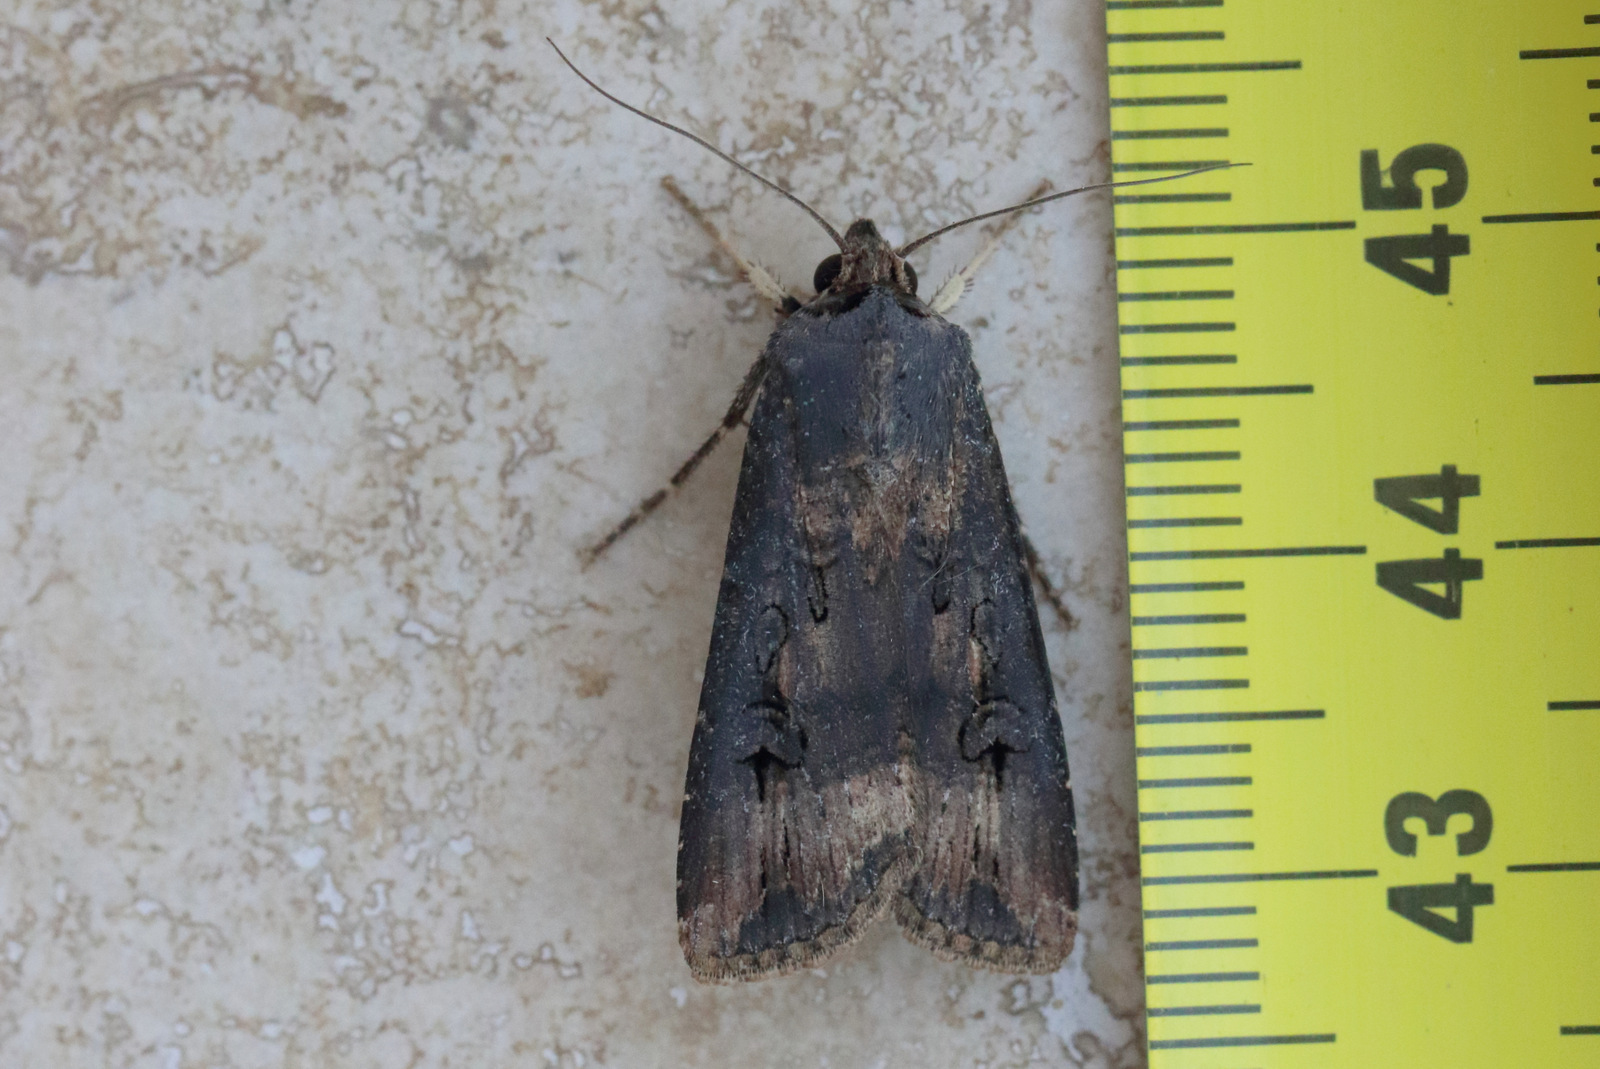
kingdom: Animalia
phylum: Arthropoda
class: Insecta
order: Lepidoptera
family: Noctuidae
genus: Agrotis
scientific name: Agrotis ipsilon
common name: Dark sword-grass
